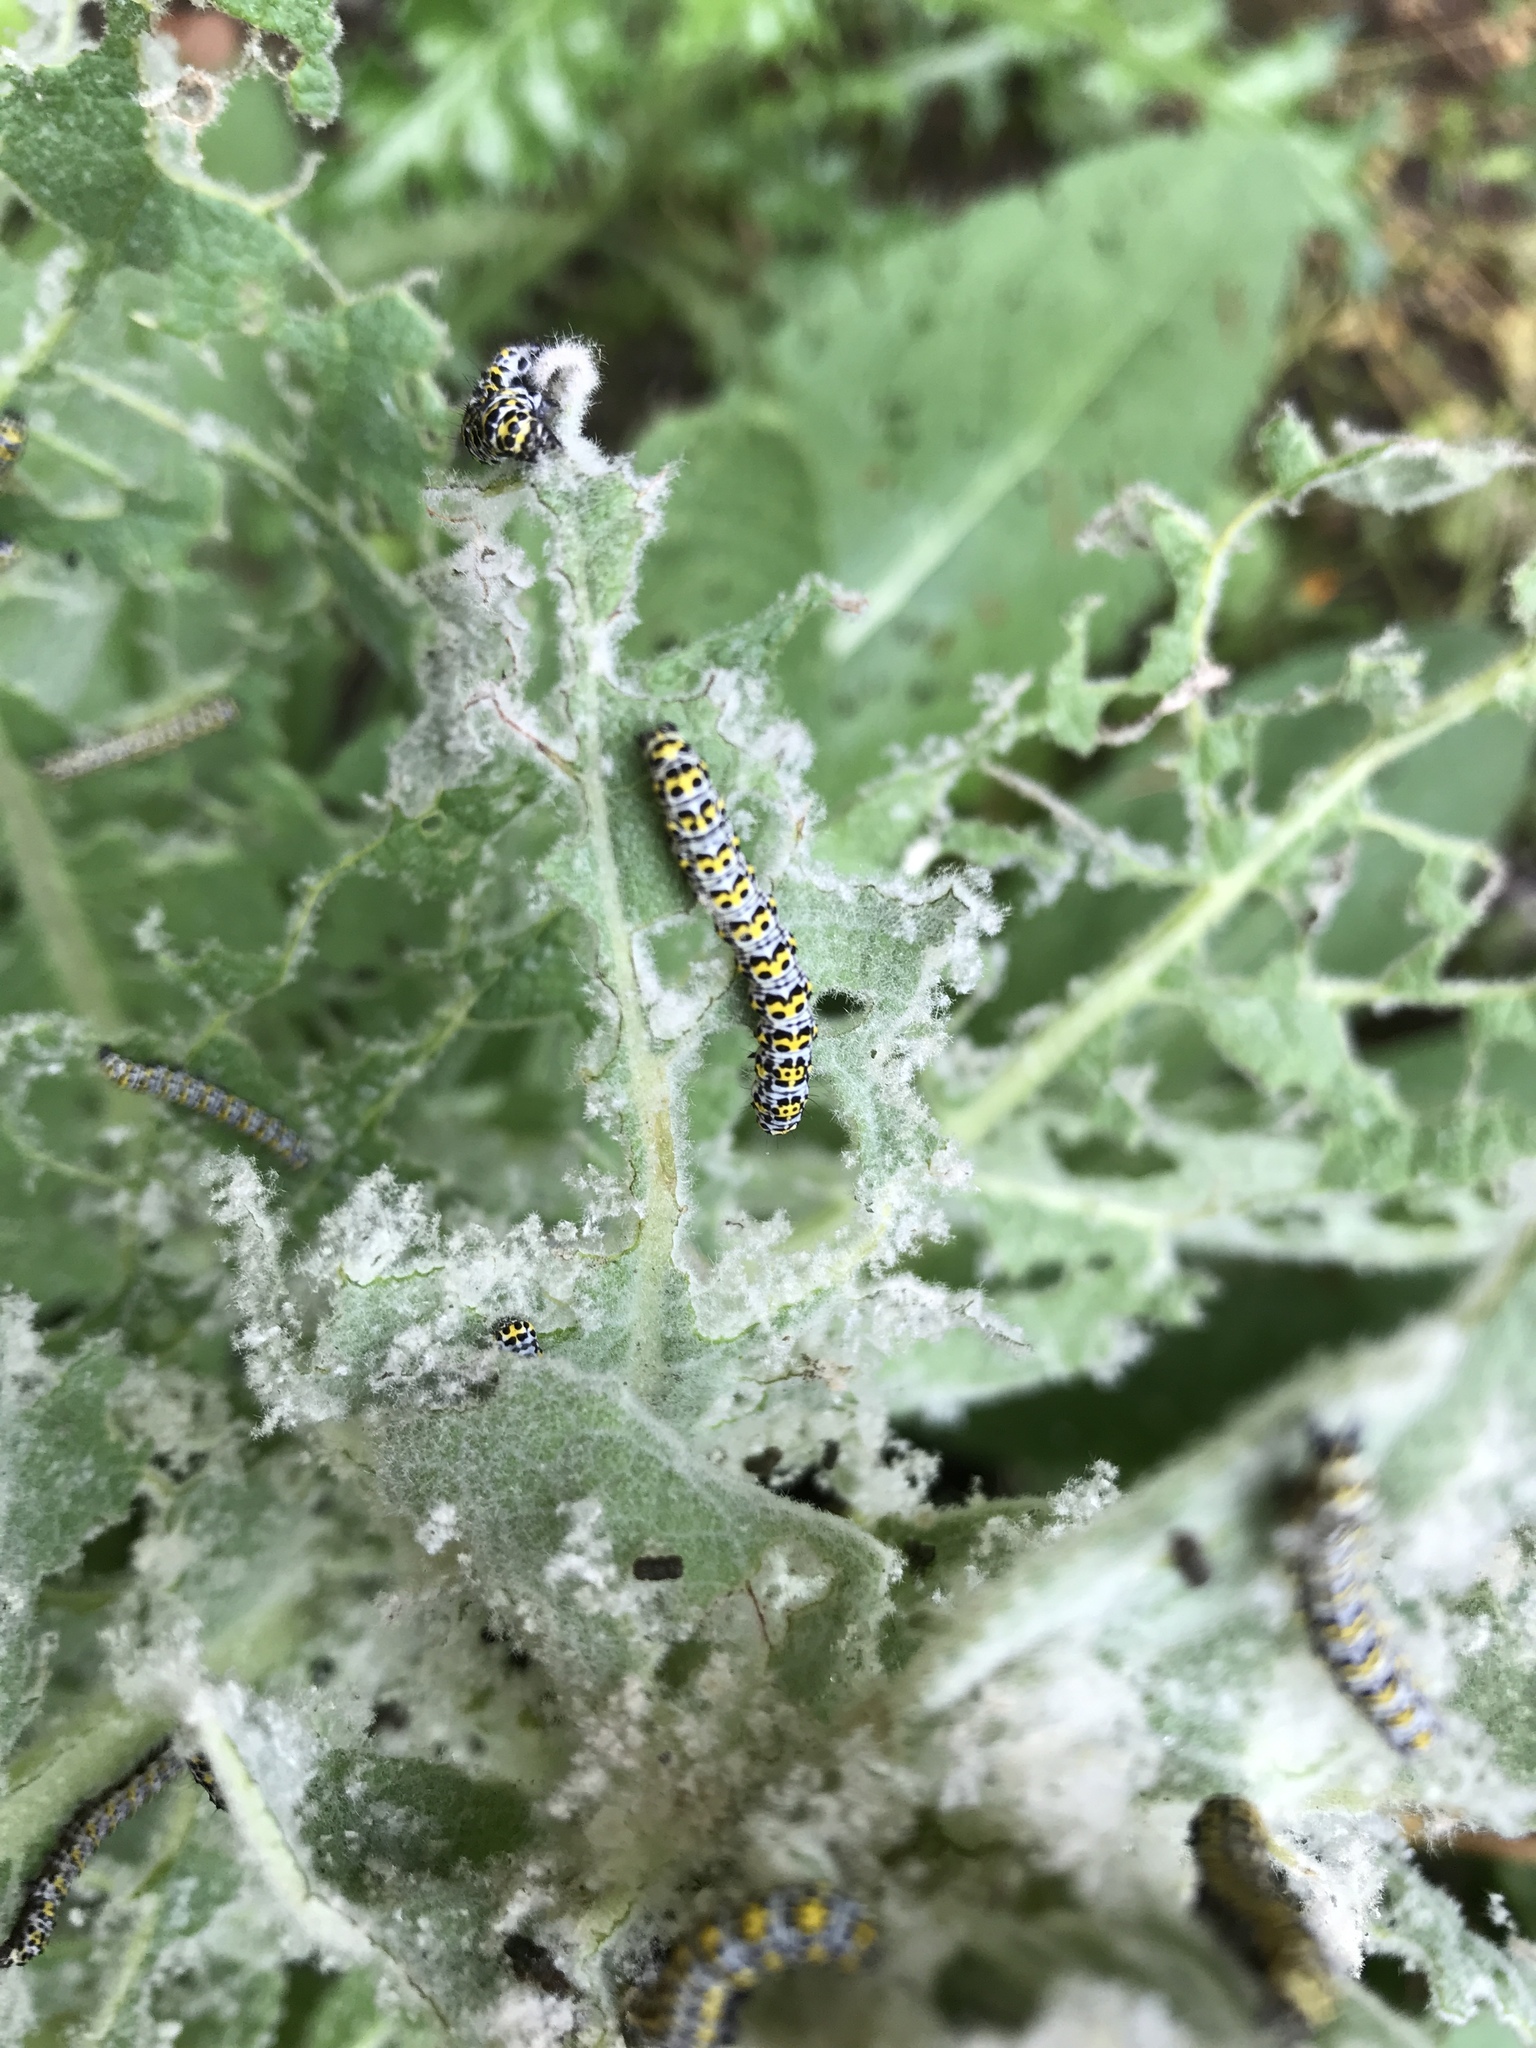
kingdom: Animalia
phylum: Arthropoda
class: Insecta
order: Lepidoptera
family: Noctuidae
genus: Cucullia
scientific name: Cucullia verbasci
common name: Mullein
